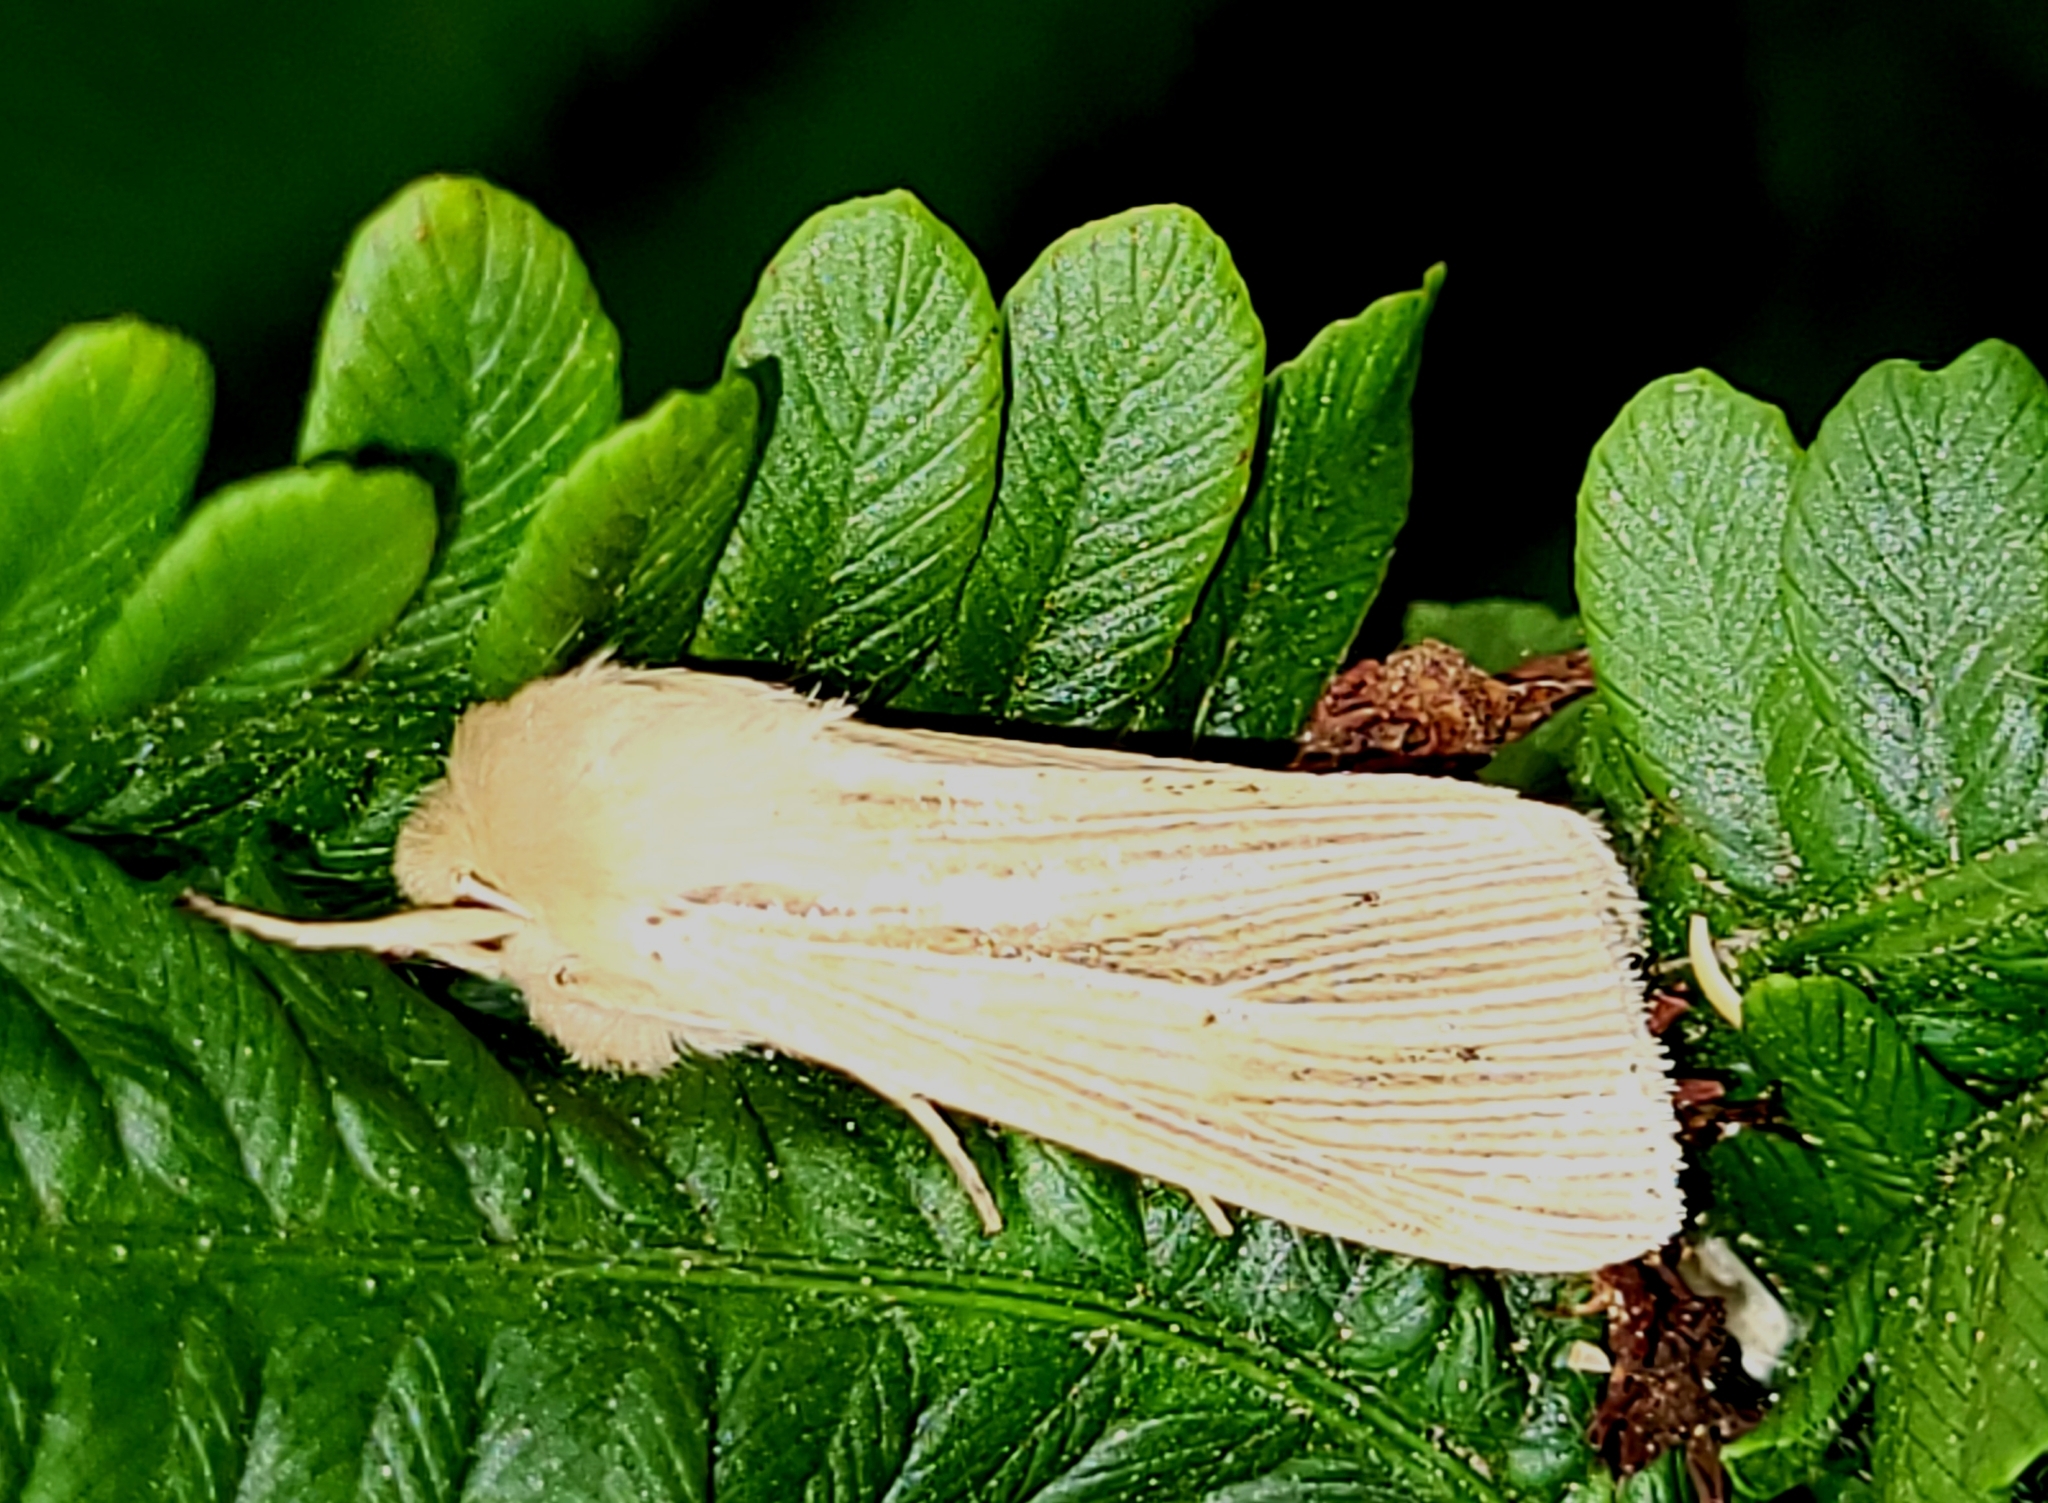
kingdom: Animalia
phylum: Arthropoda
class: Insecta
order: Lepidoptera
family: Noctuidae
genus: Mythimna
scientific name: Mythimna oxygala
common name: Lesser wainscot
